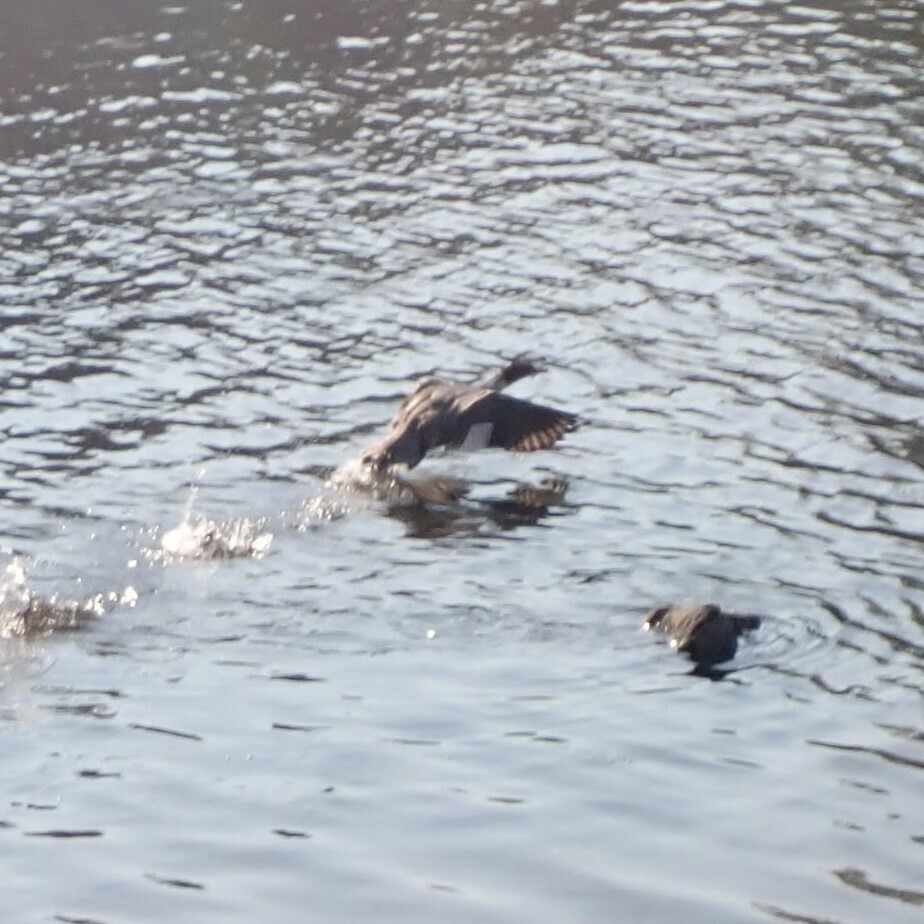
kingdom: Animalia
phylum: Chordata
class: Aves
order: Anseriformes
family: Anatidae
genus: Mergus
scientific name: Mergus merganser
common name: Common merganser
